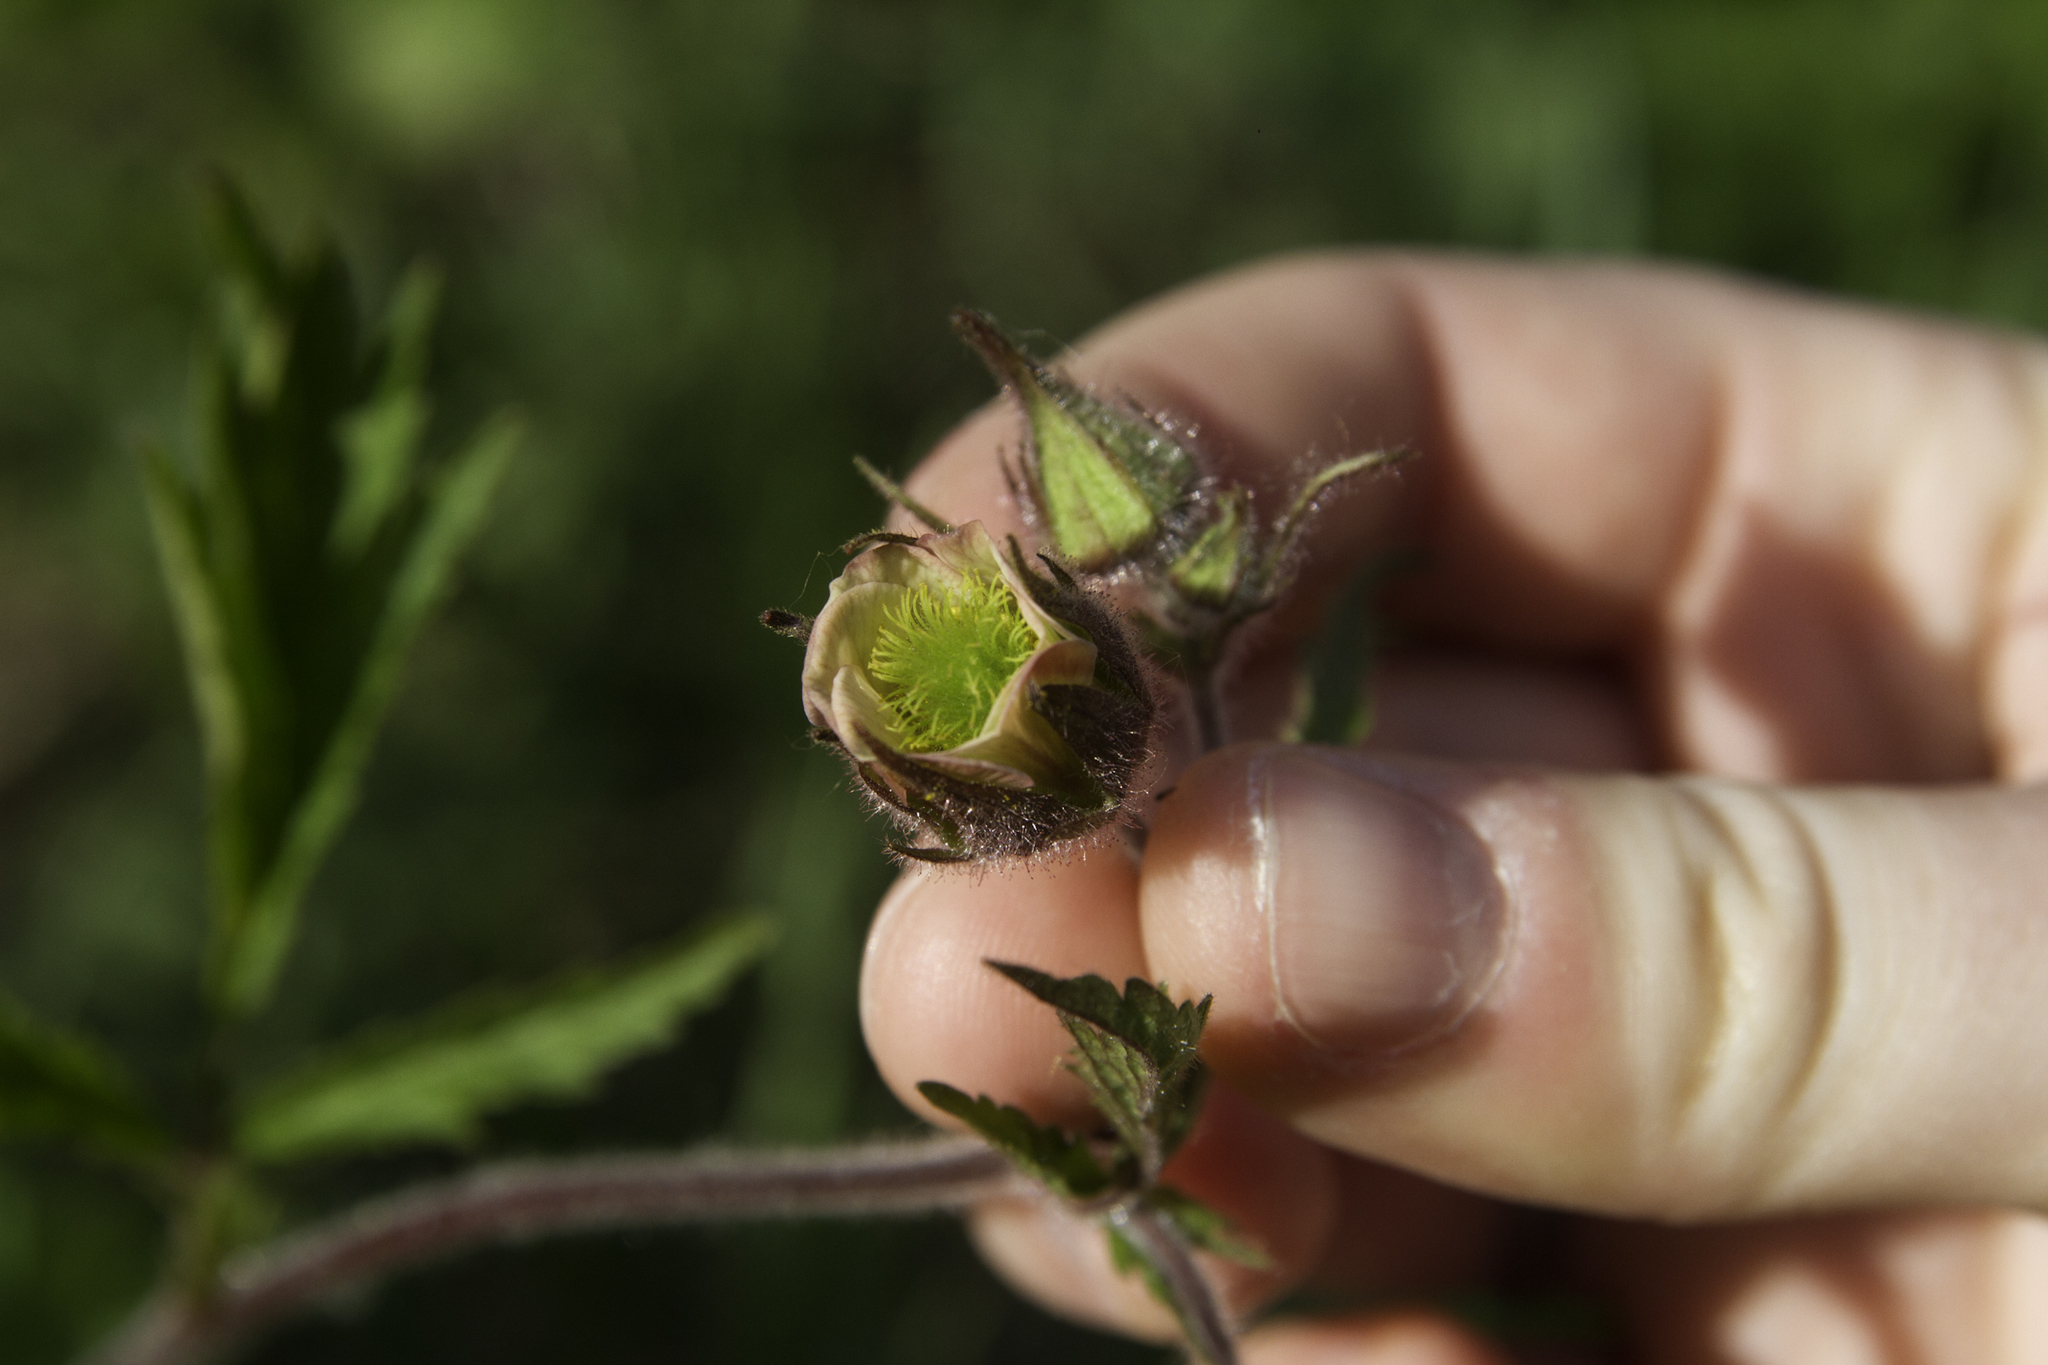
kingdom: Plantae
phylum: Tracheophyta
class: Magnoliopsida
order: Rosales
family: Rosaceae
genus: Geum
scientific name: Geum rivale
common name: Water avens
